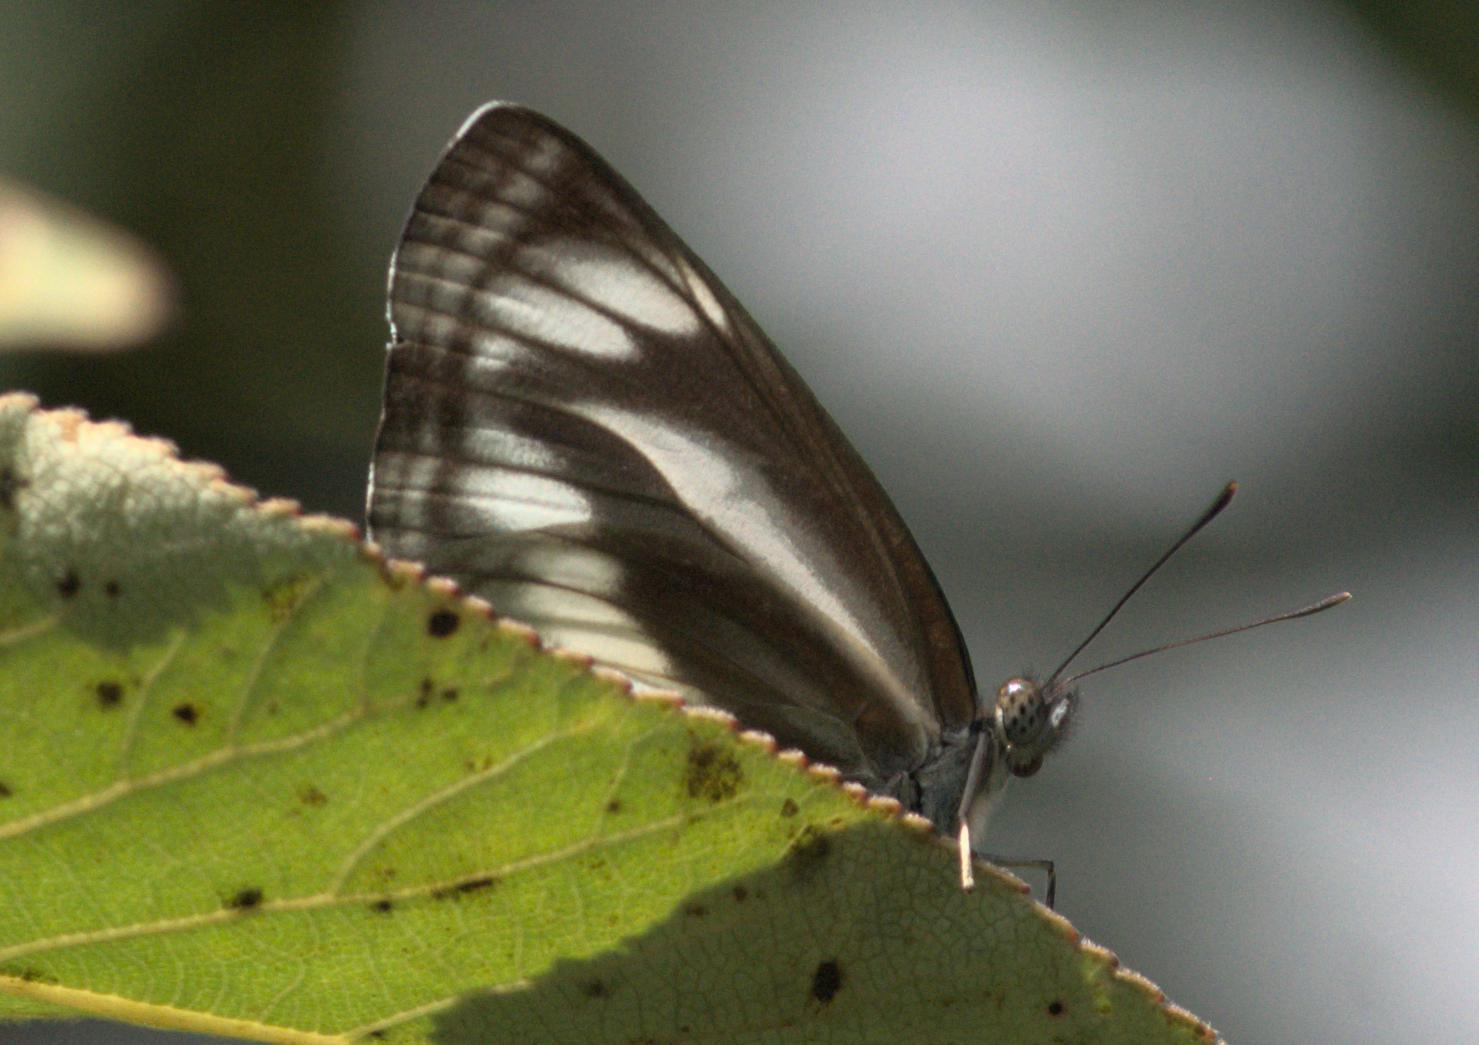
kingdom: Animalia
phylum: Arthropoda
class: Insecta
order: Lepidoptera
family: Nymphalidae
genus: Neptis
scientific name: Neptis sankara
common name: Broad-banded sailer
